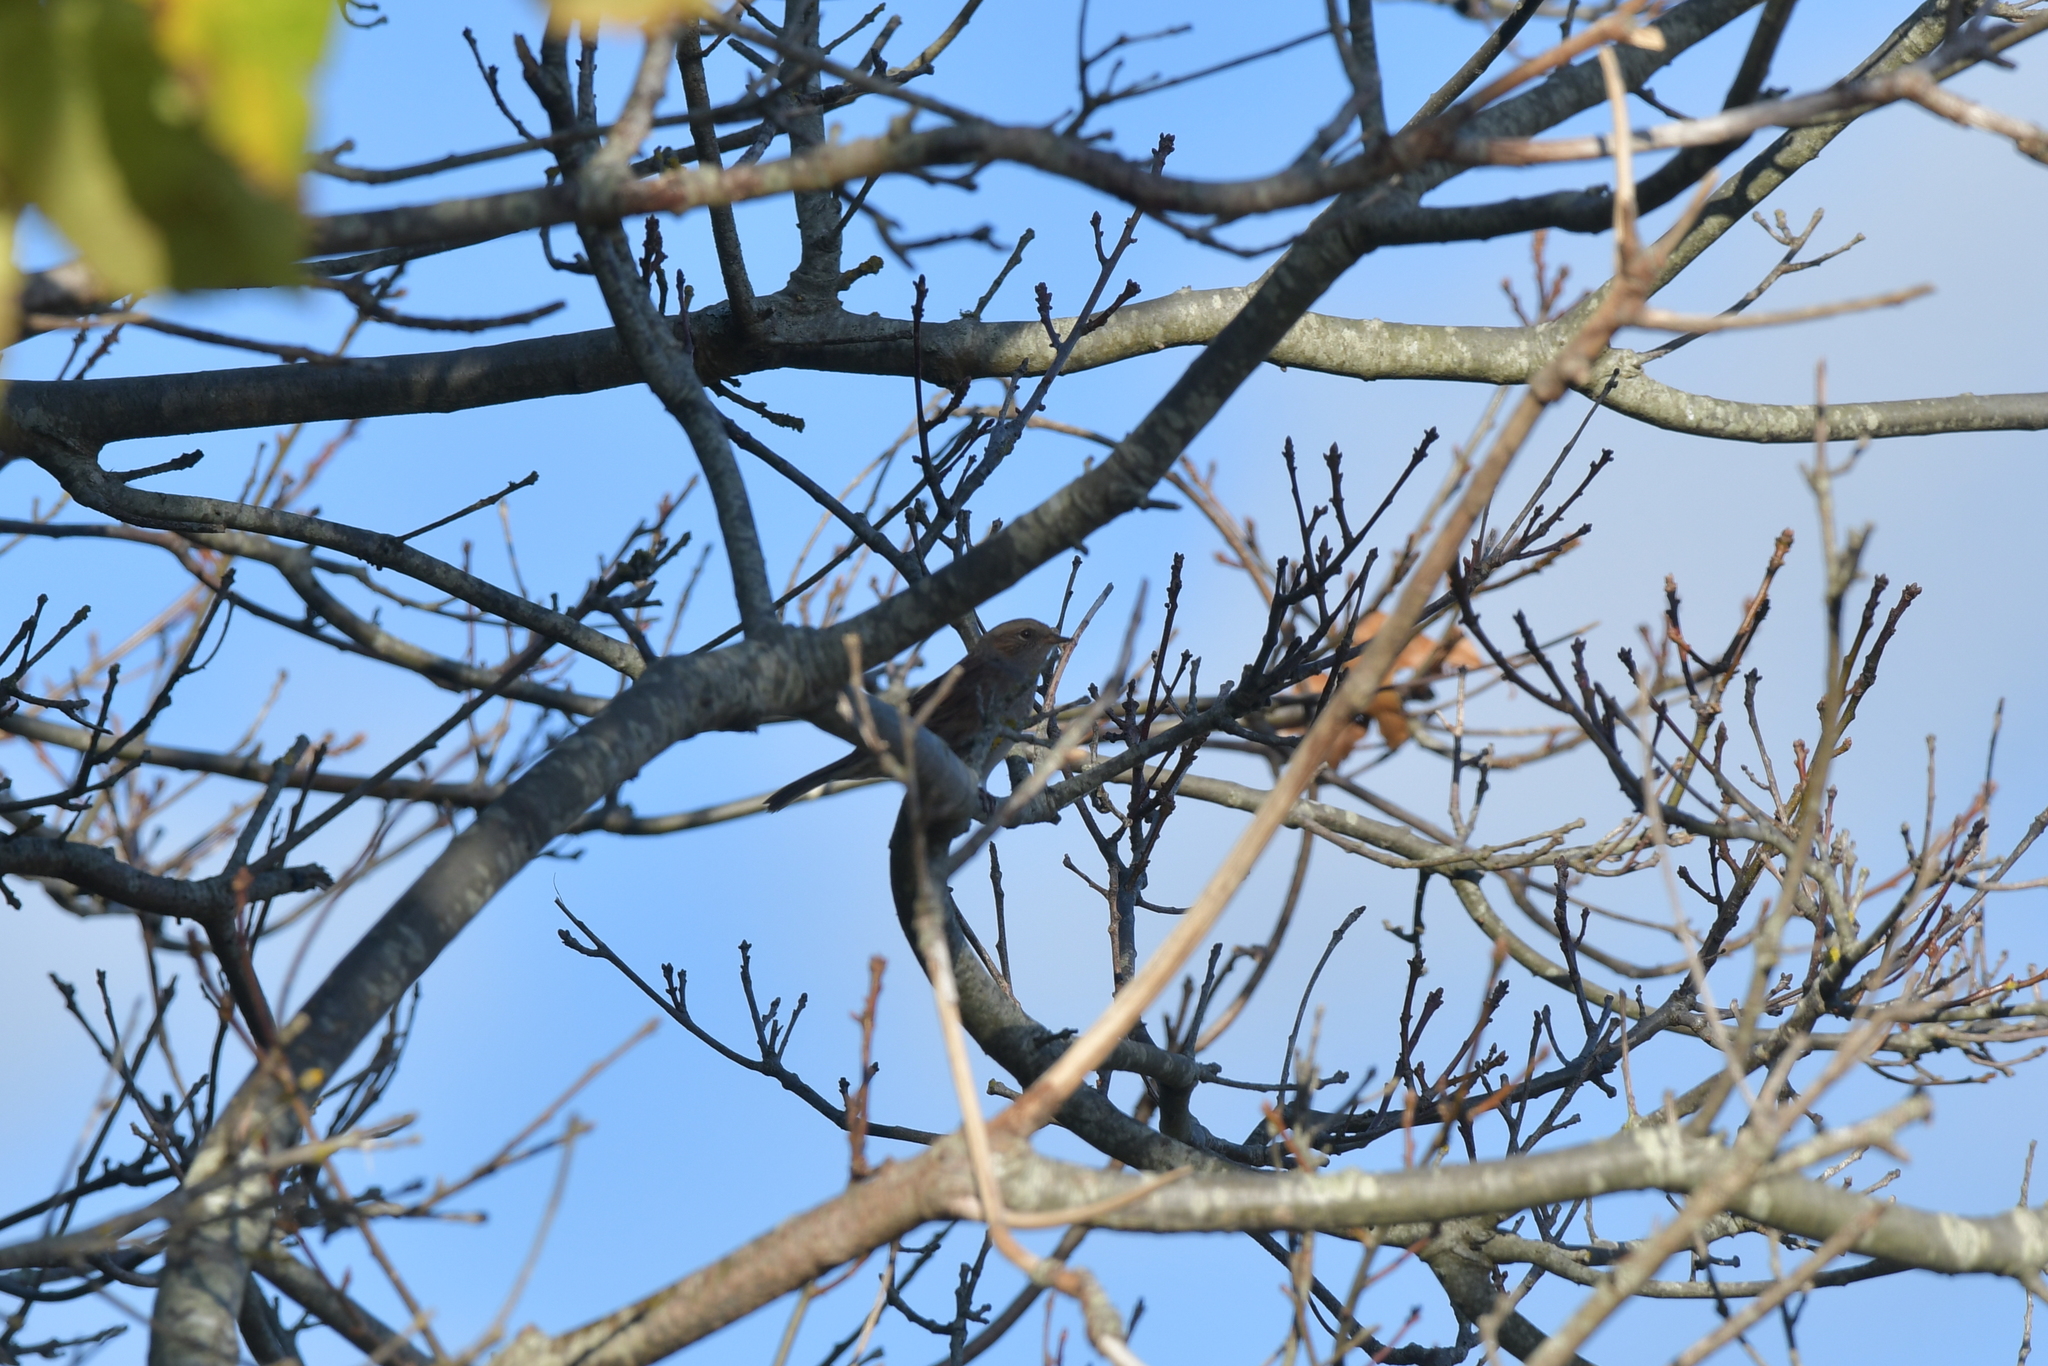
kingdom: Animalia
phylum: Chordata
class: Aves
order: Passeriformes
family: Prunellidae
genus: Prunella
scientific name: Prunella modularis
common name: Dunnock
